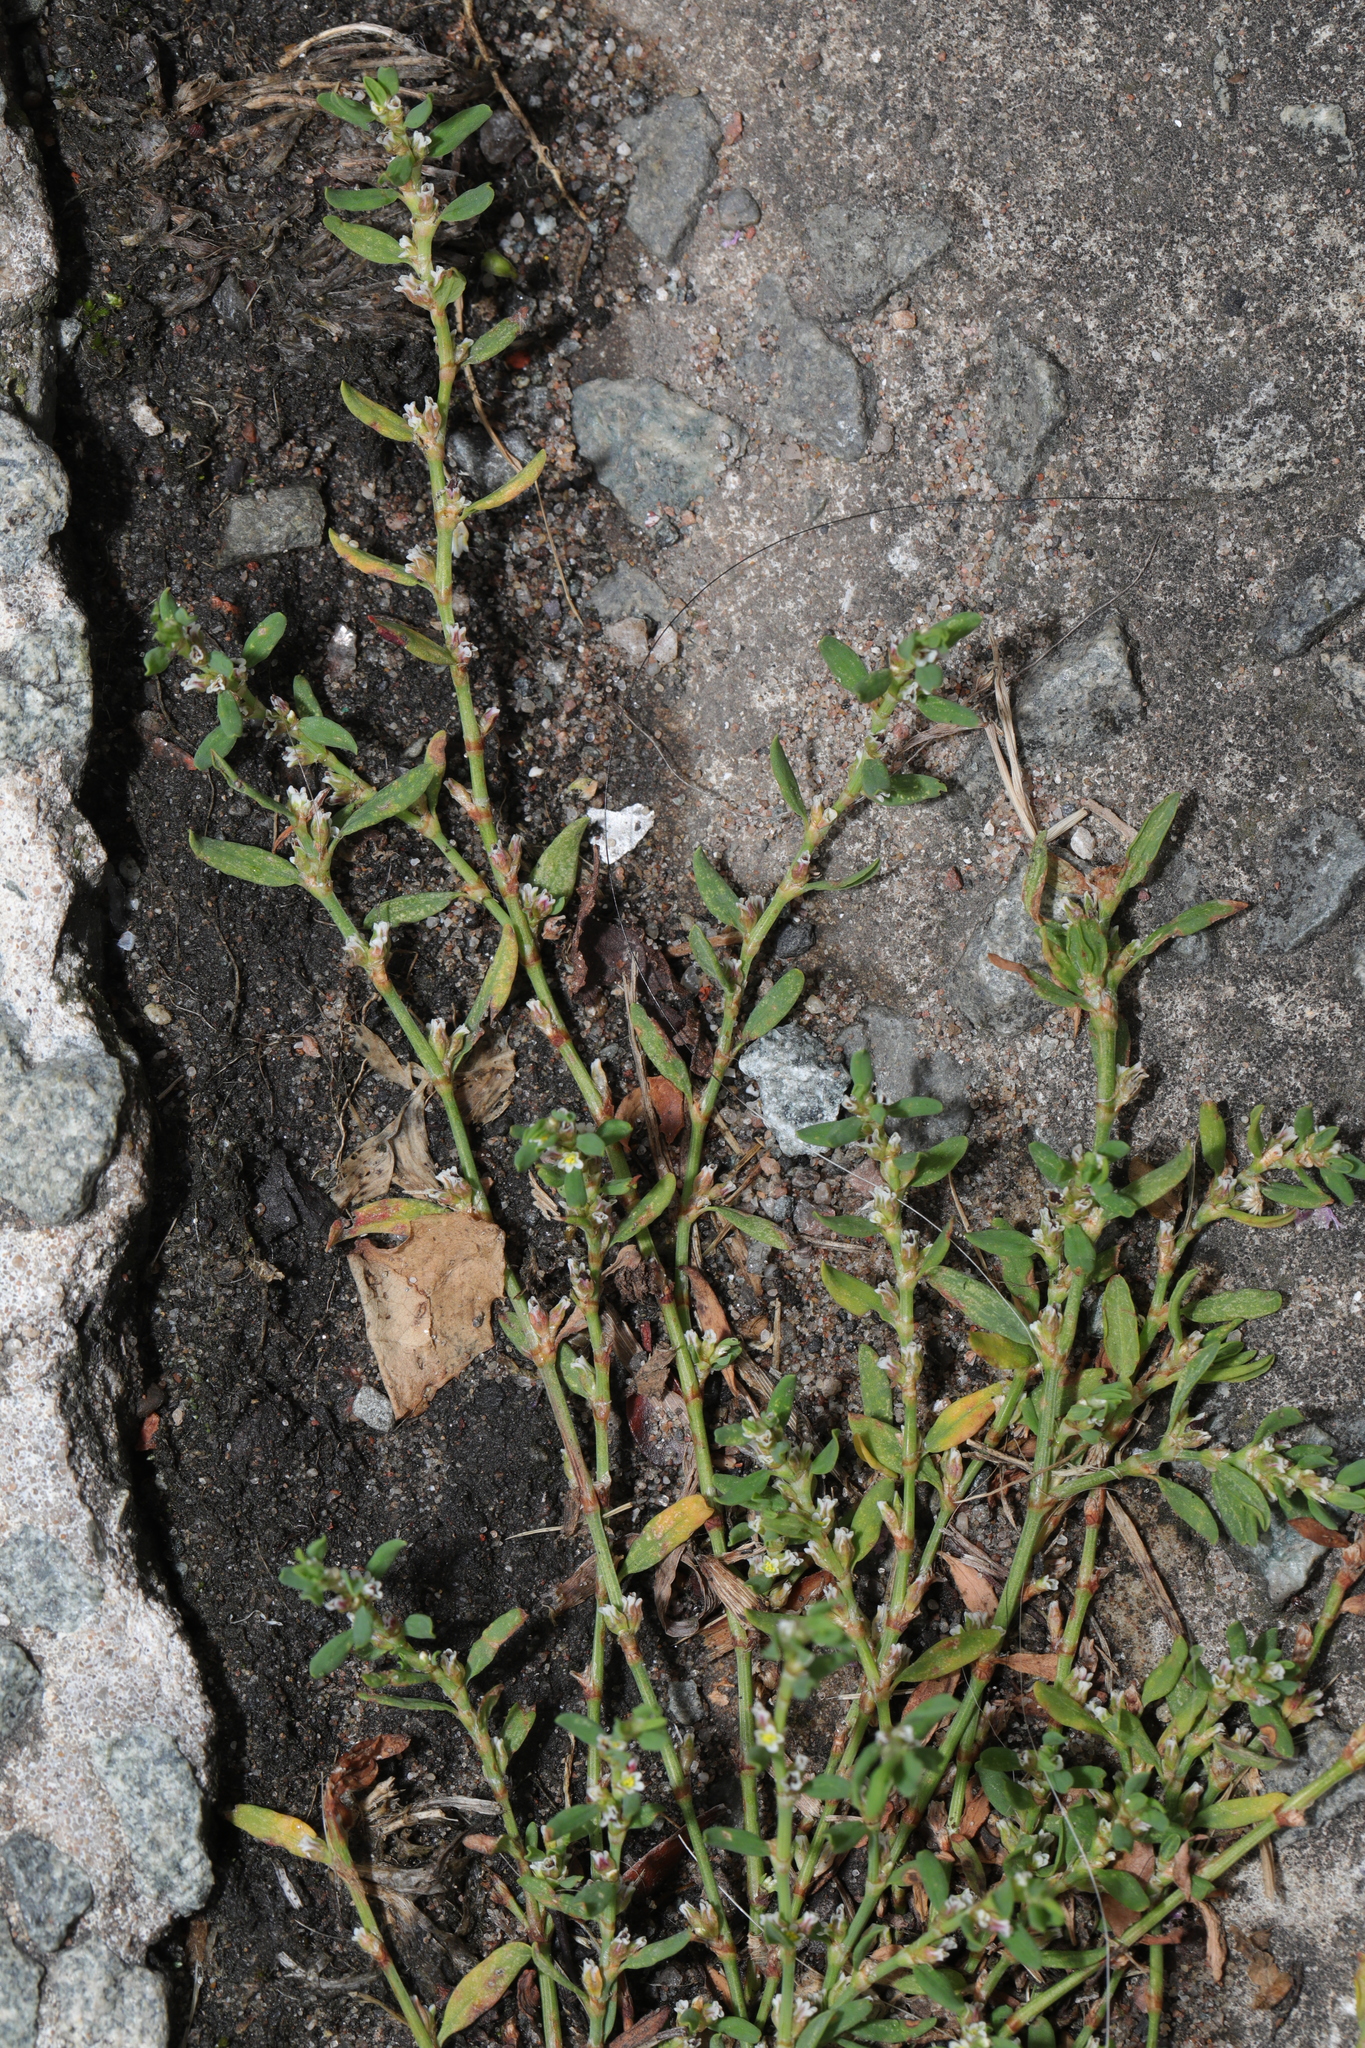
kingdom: Plantae
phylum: Tracheophyta
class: Magnoliopsida
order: Caryophyllales
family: Polygonaceae
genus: Polygonum
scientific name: Polygonum aviculare
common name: Prostrate knotweed
